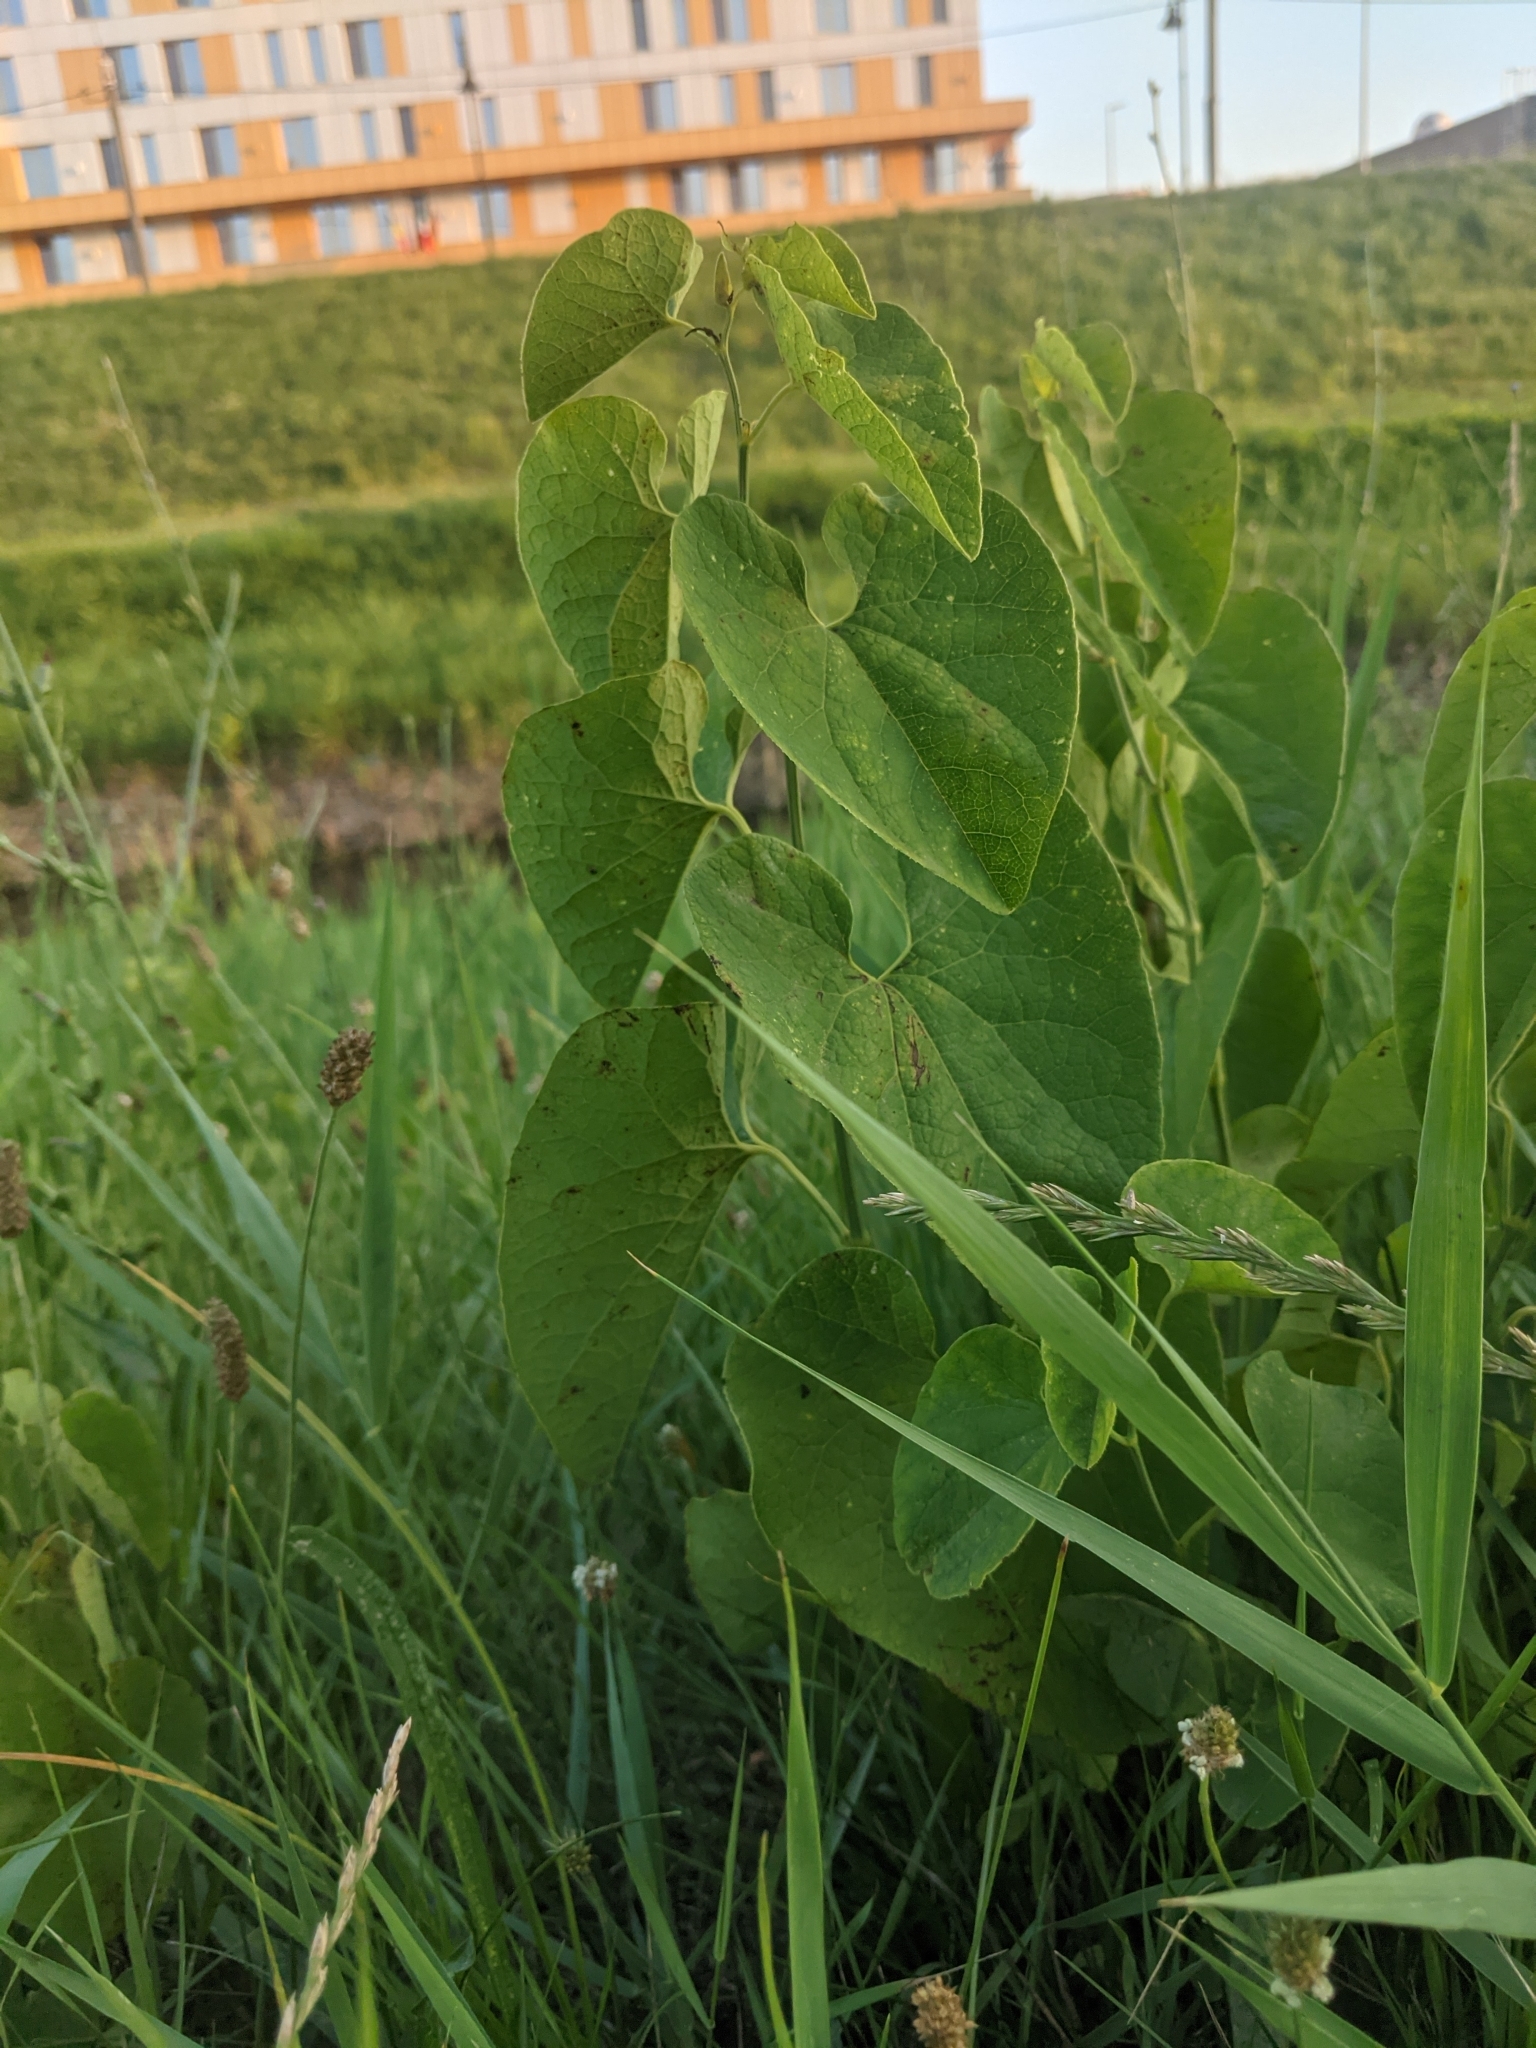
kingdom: Plantae
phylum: Tracheophyta
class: Magnoliopsida
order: Piperales
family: Aristolochiaceae
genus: Aristolochia
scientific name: Aristolochia clematitis
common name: Birthwort
